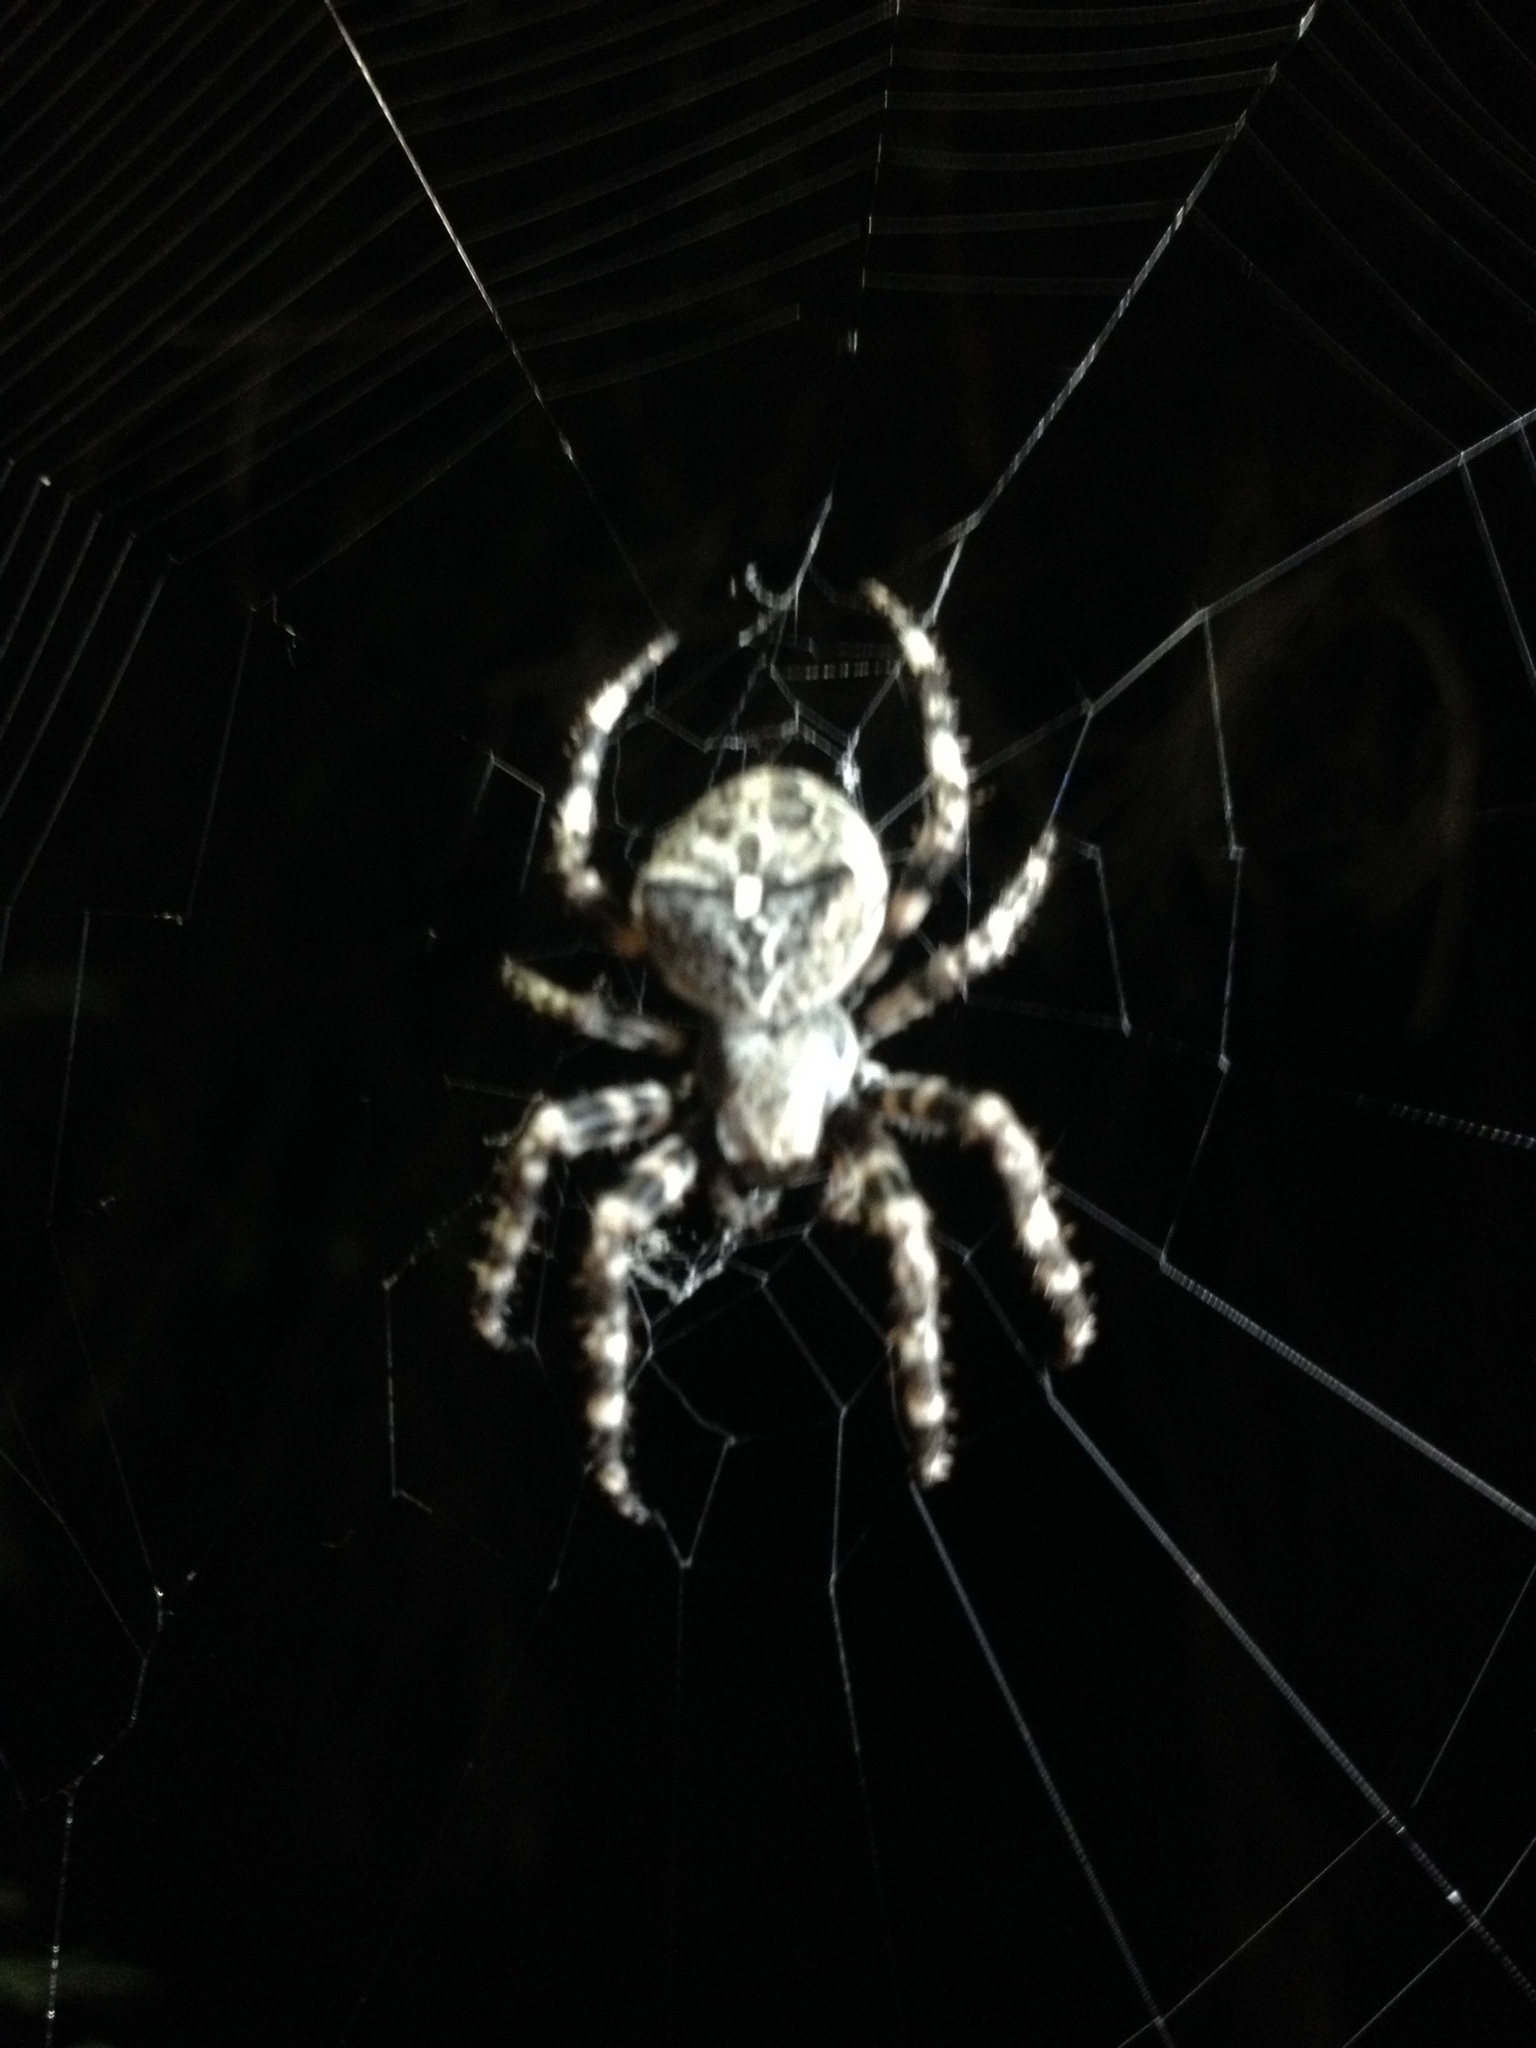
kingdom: Animalia
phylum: Arthropoda
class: Arachnida
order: Araneae
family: Araneidae
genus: Araneus
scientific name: Araneus angulatus
